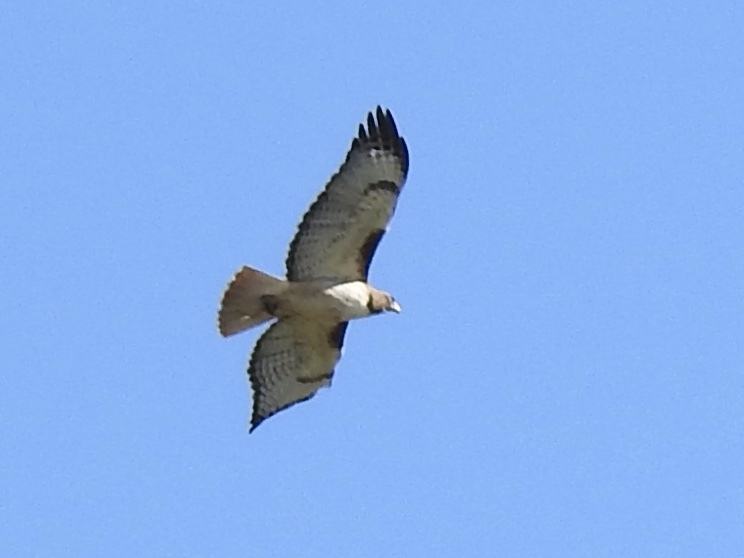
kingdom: Animalia
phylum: Chordata
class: Aves
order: Accipitriformes
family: Accipitridae
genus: Buteo
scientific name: Buteo jamaicensis
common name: Red-tailed hawk
